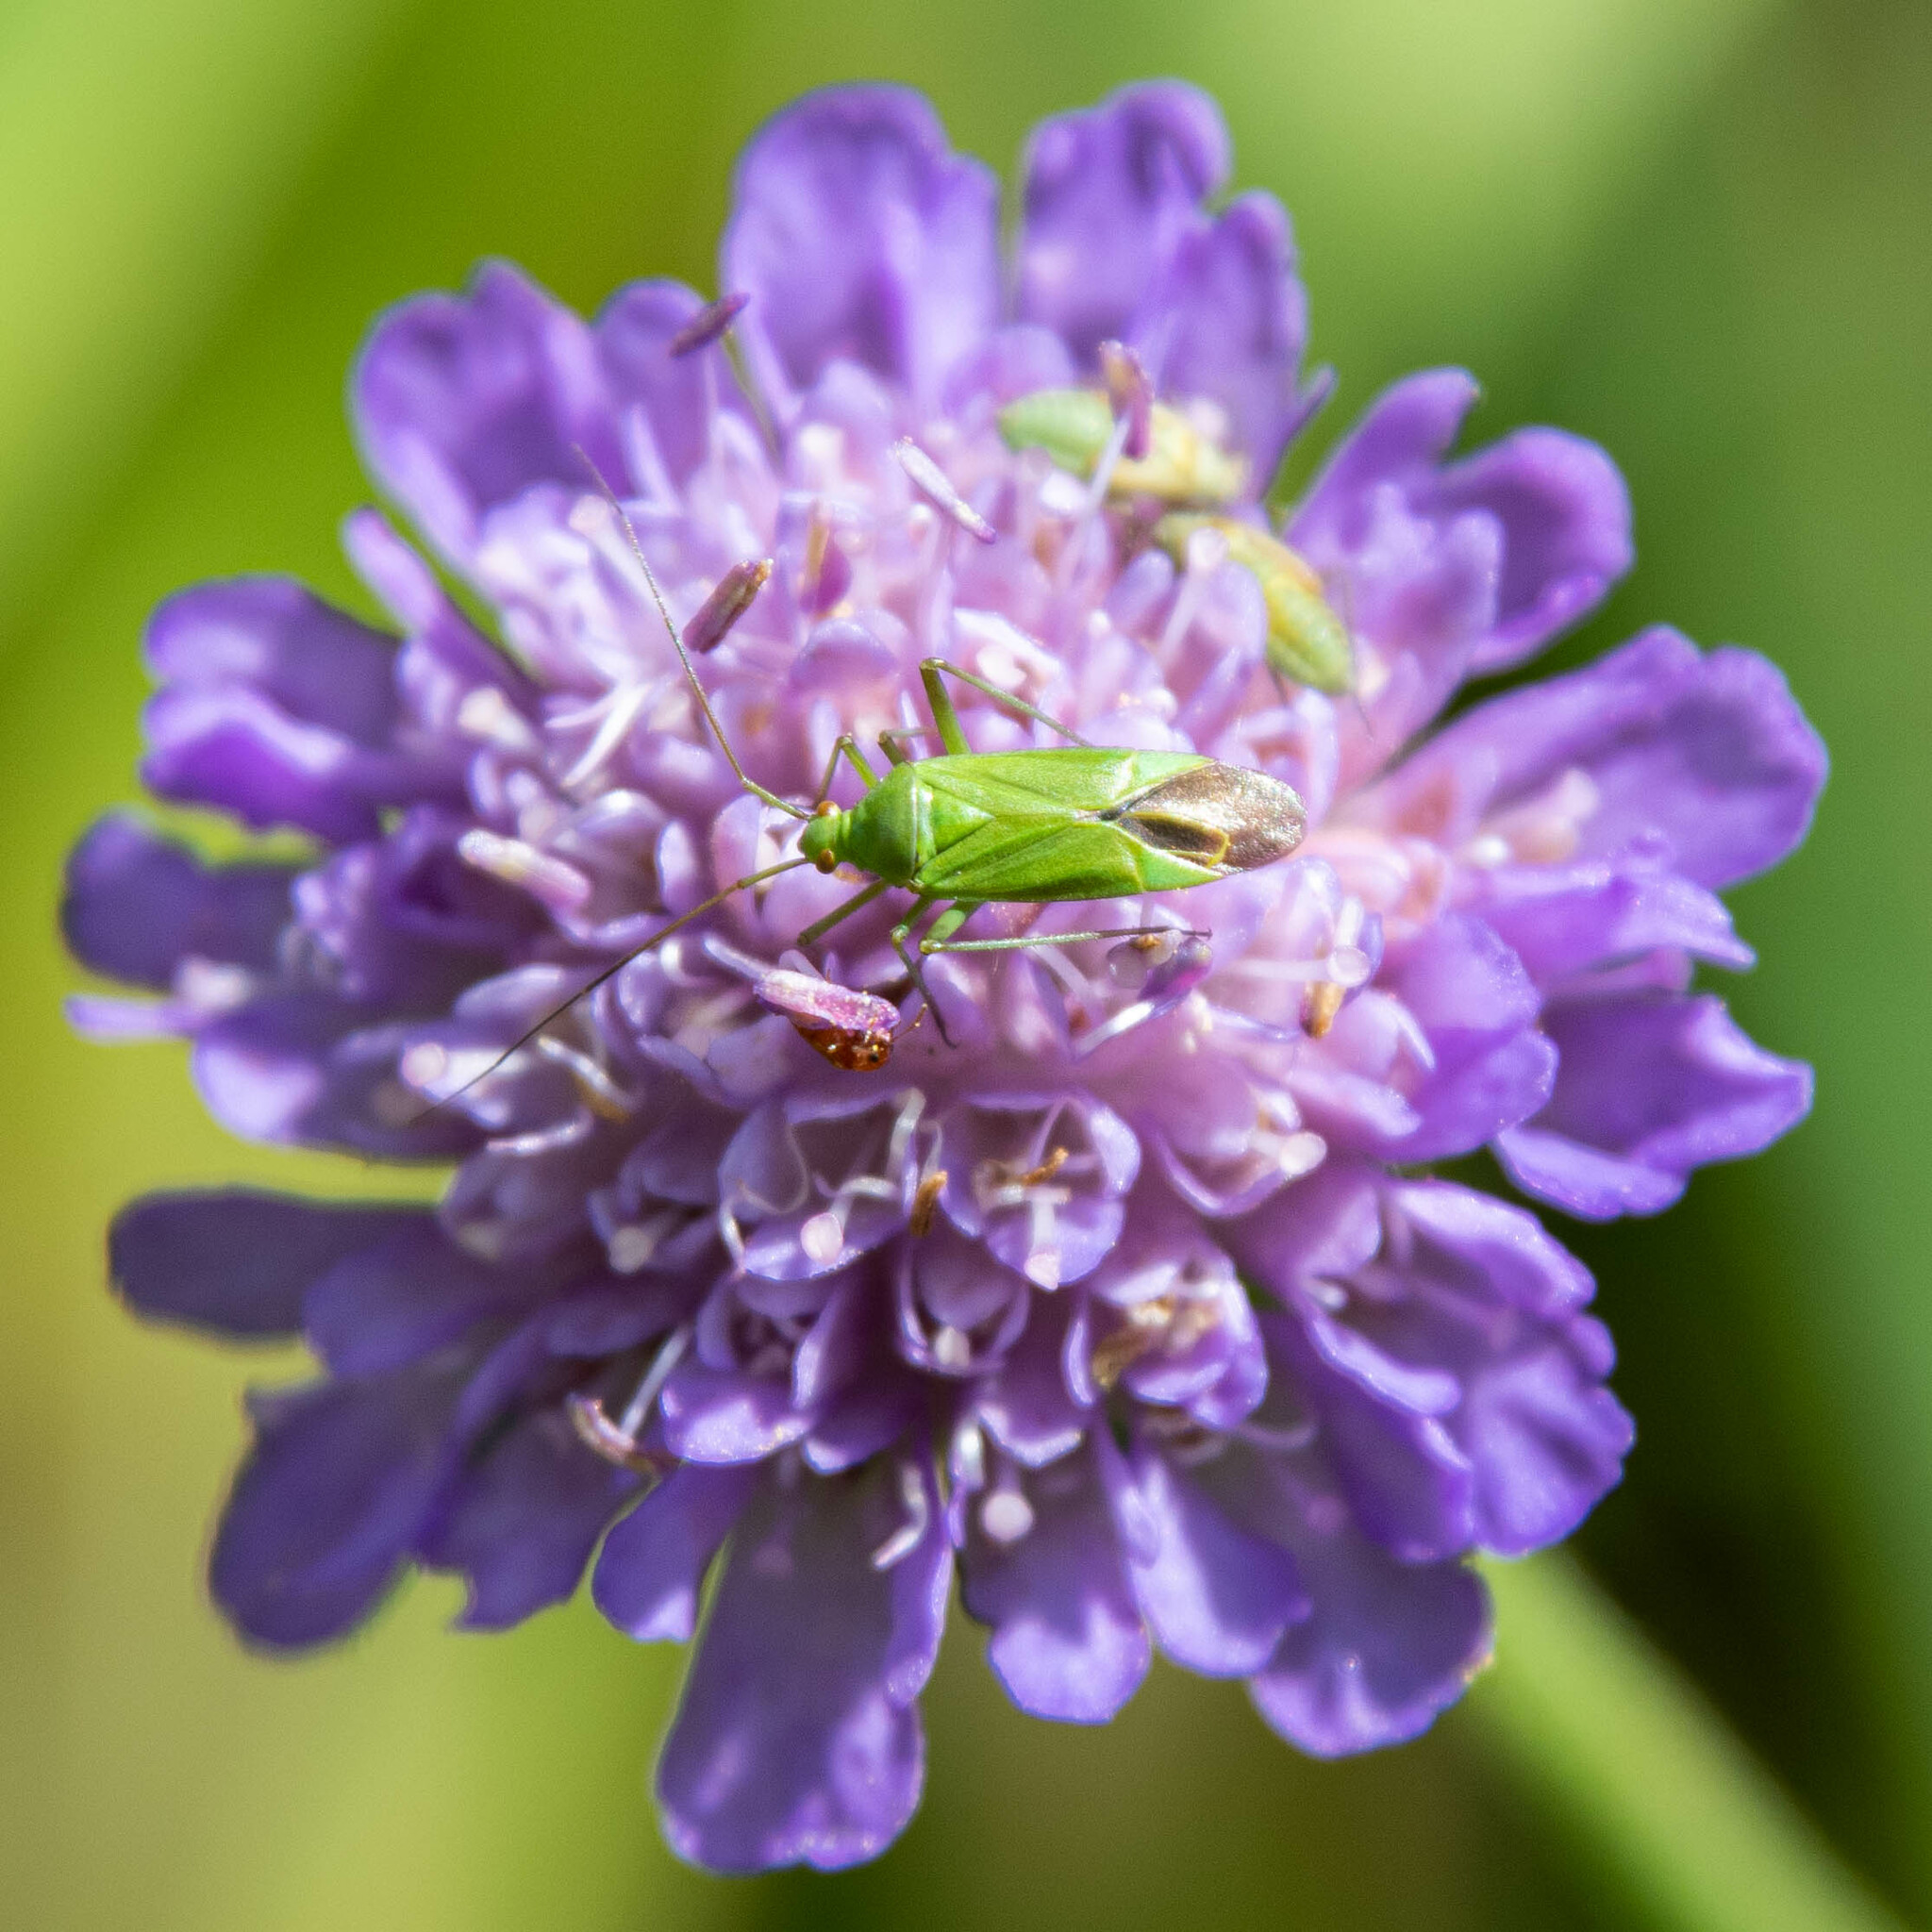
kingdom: Animalia
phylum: Arthropoda
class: Insecta
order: Hemiptera
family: Miridae
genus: Calocoris
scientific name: Calocoris affinis
